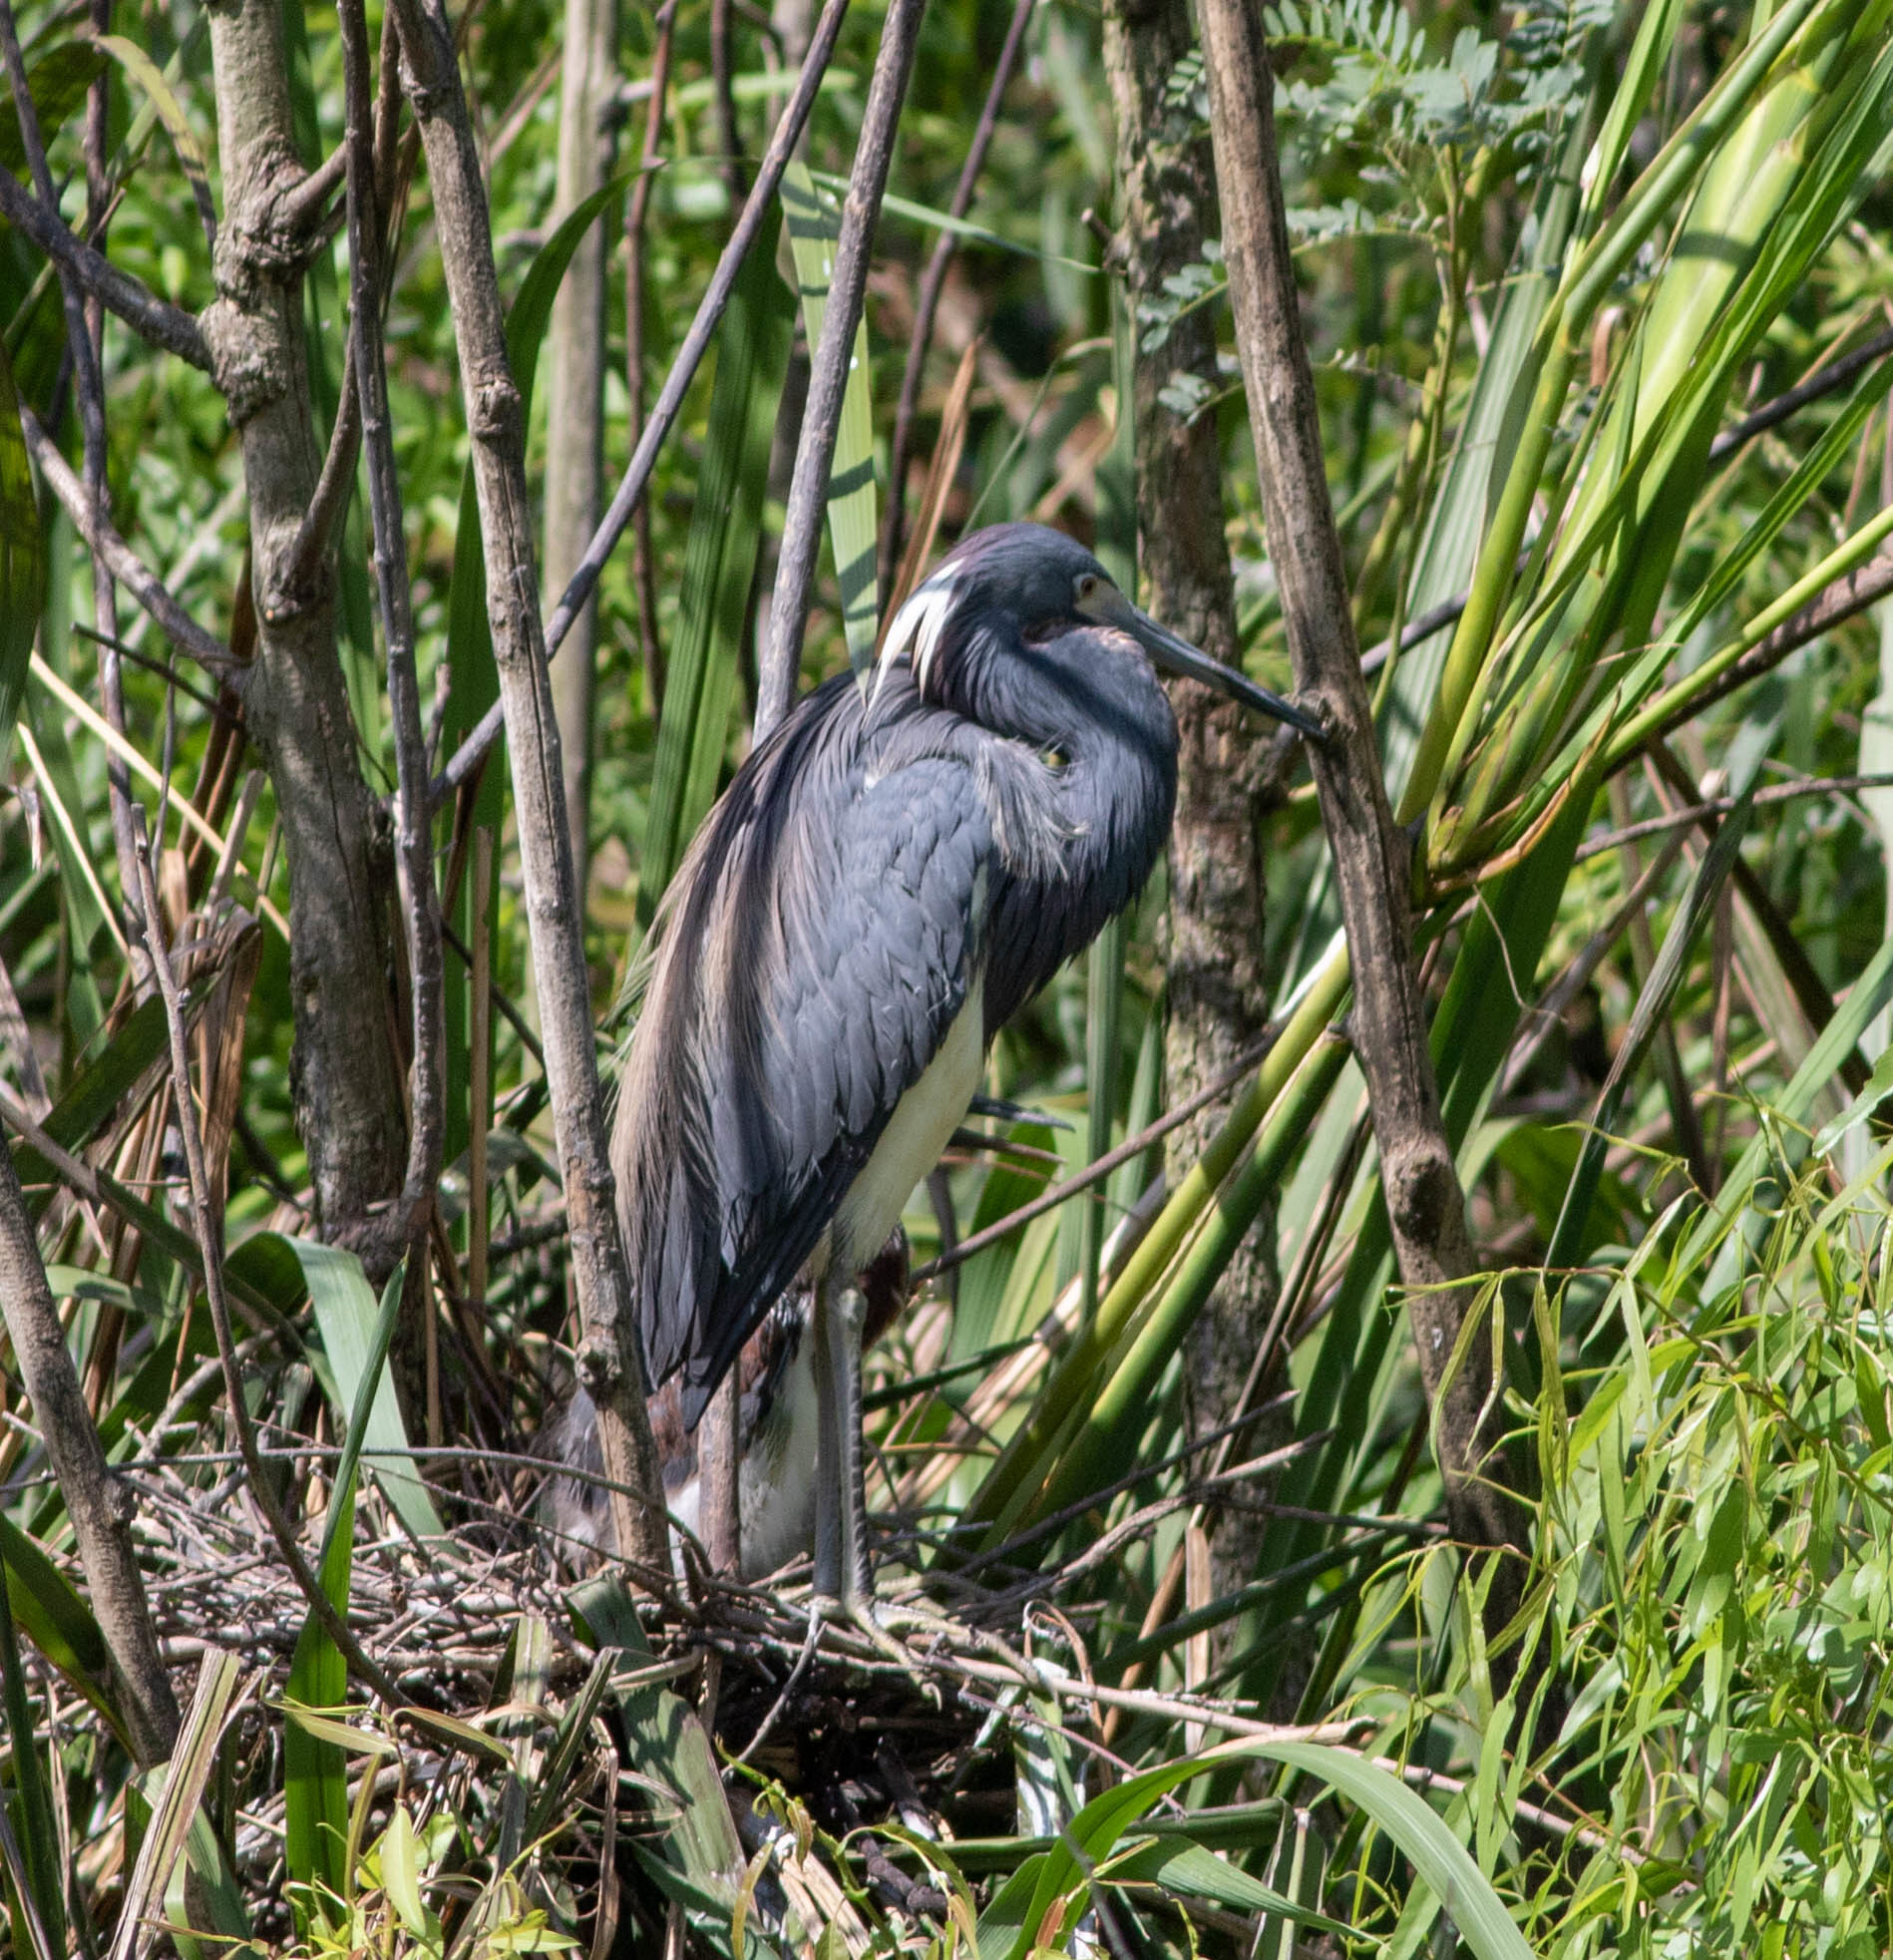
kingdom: Animalia
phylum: Chordata
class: Aves
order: Pelecaniformes
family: Ardeidae
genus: Egretta
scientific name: Egretta tricolor
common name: Tricolored heron
